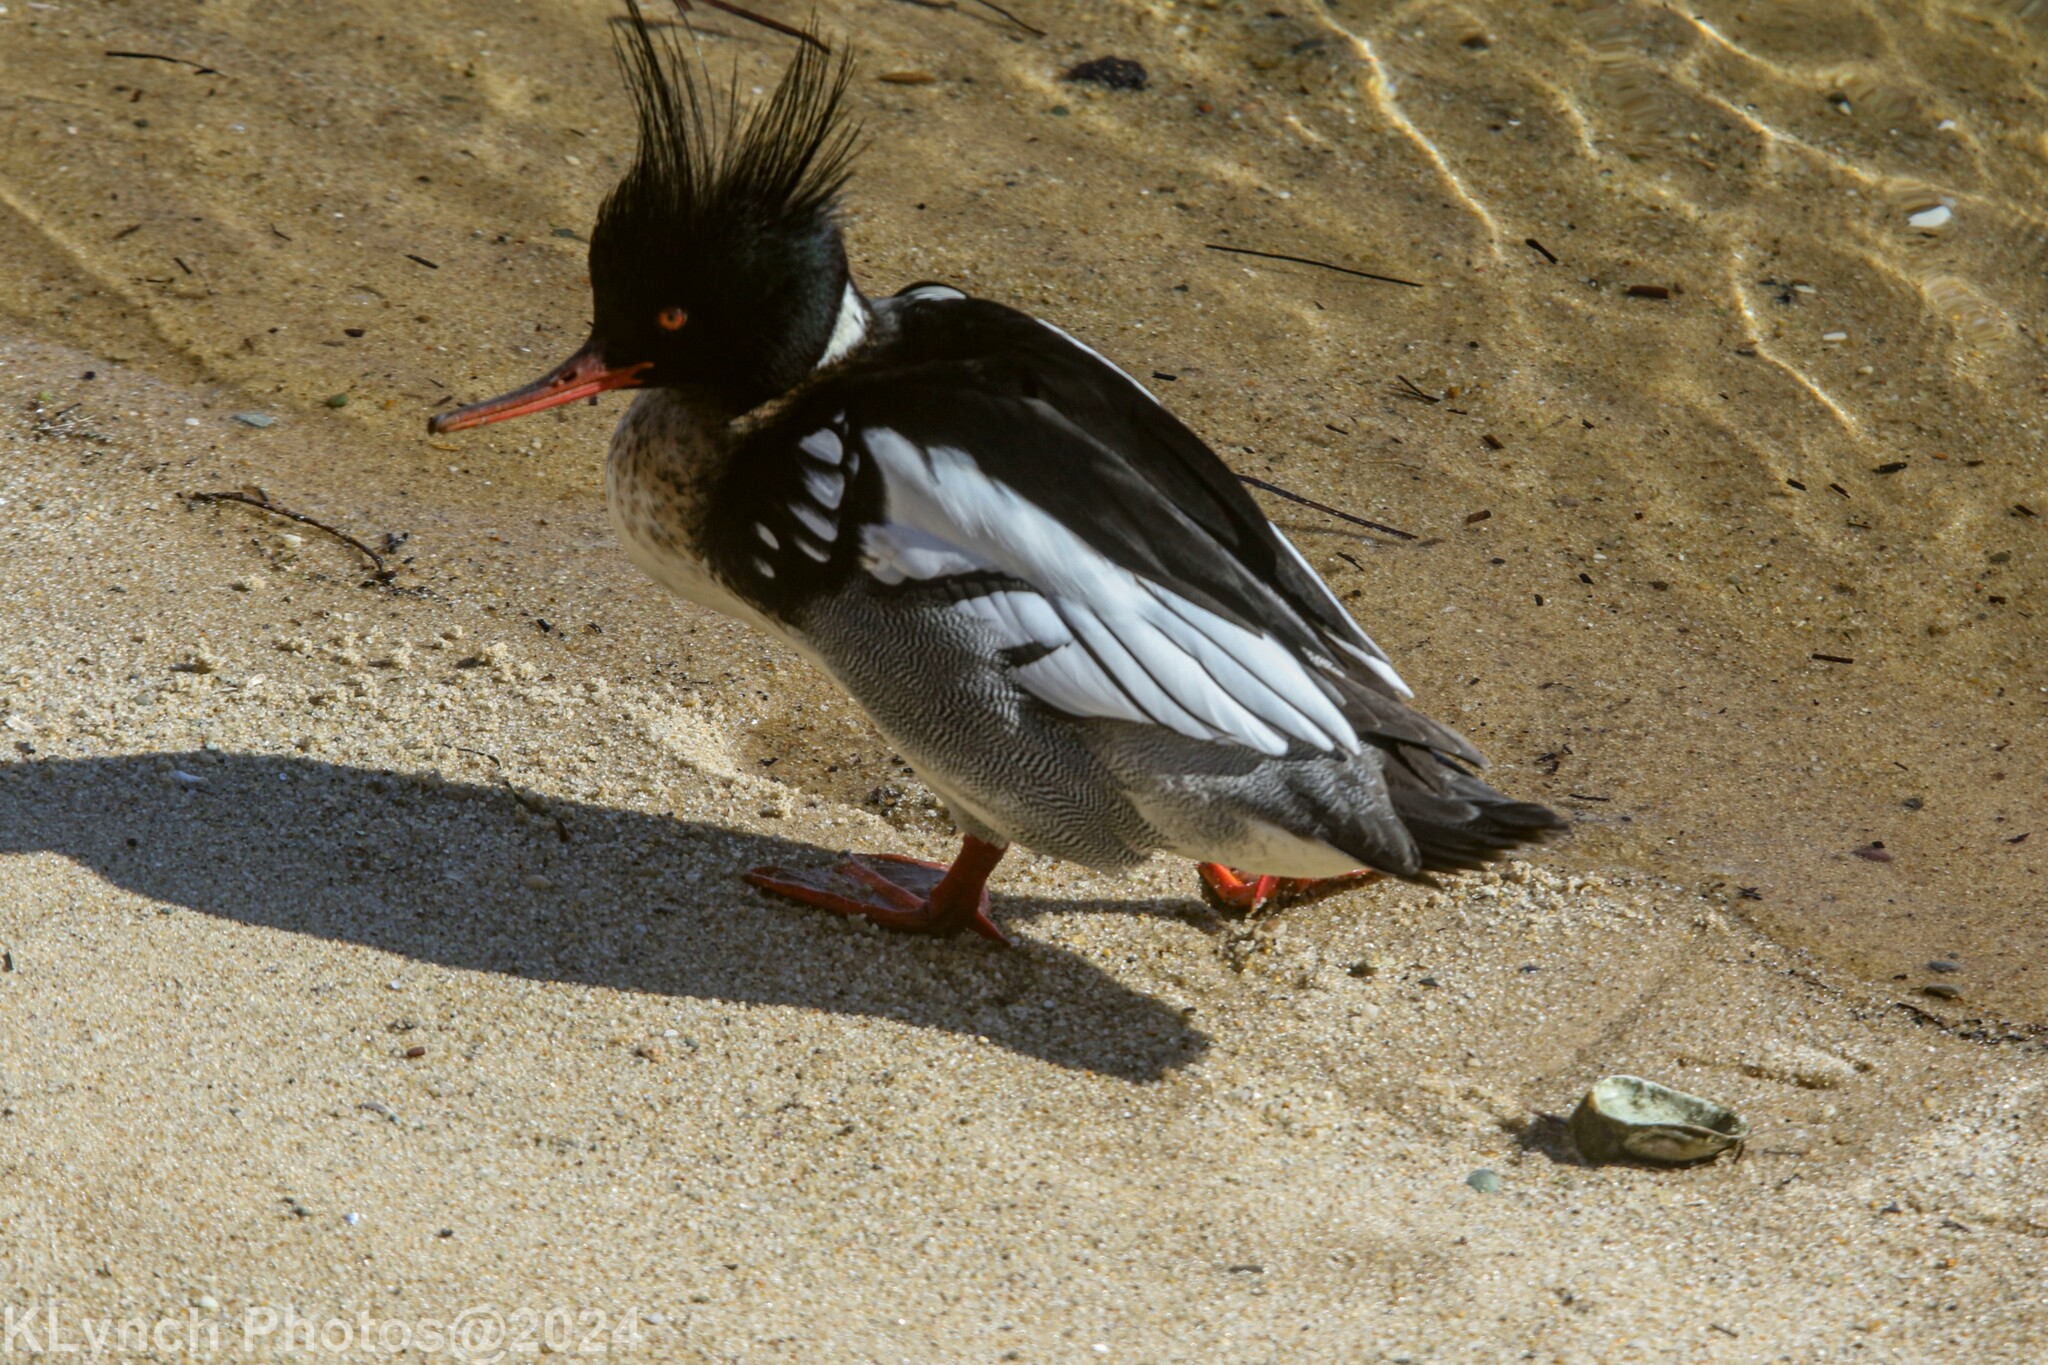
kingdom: Animalia
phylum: Chordata
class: Aves
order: Anseriformes
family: Anatidae
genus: Mergus
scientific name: Mergus serrator
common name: Red-breasted merganser
